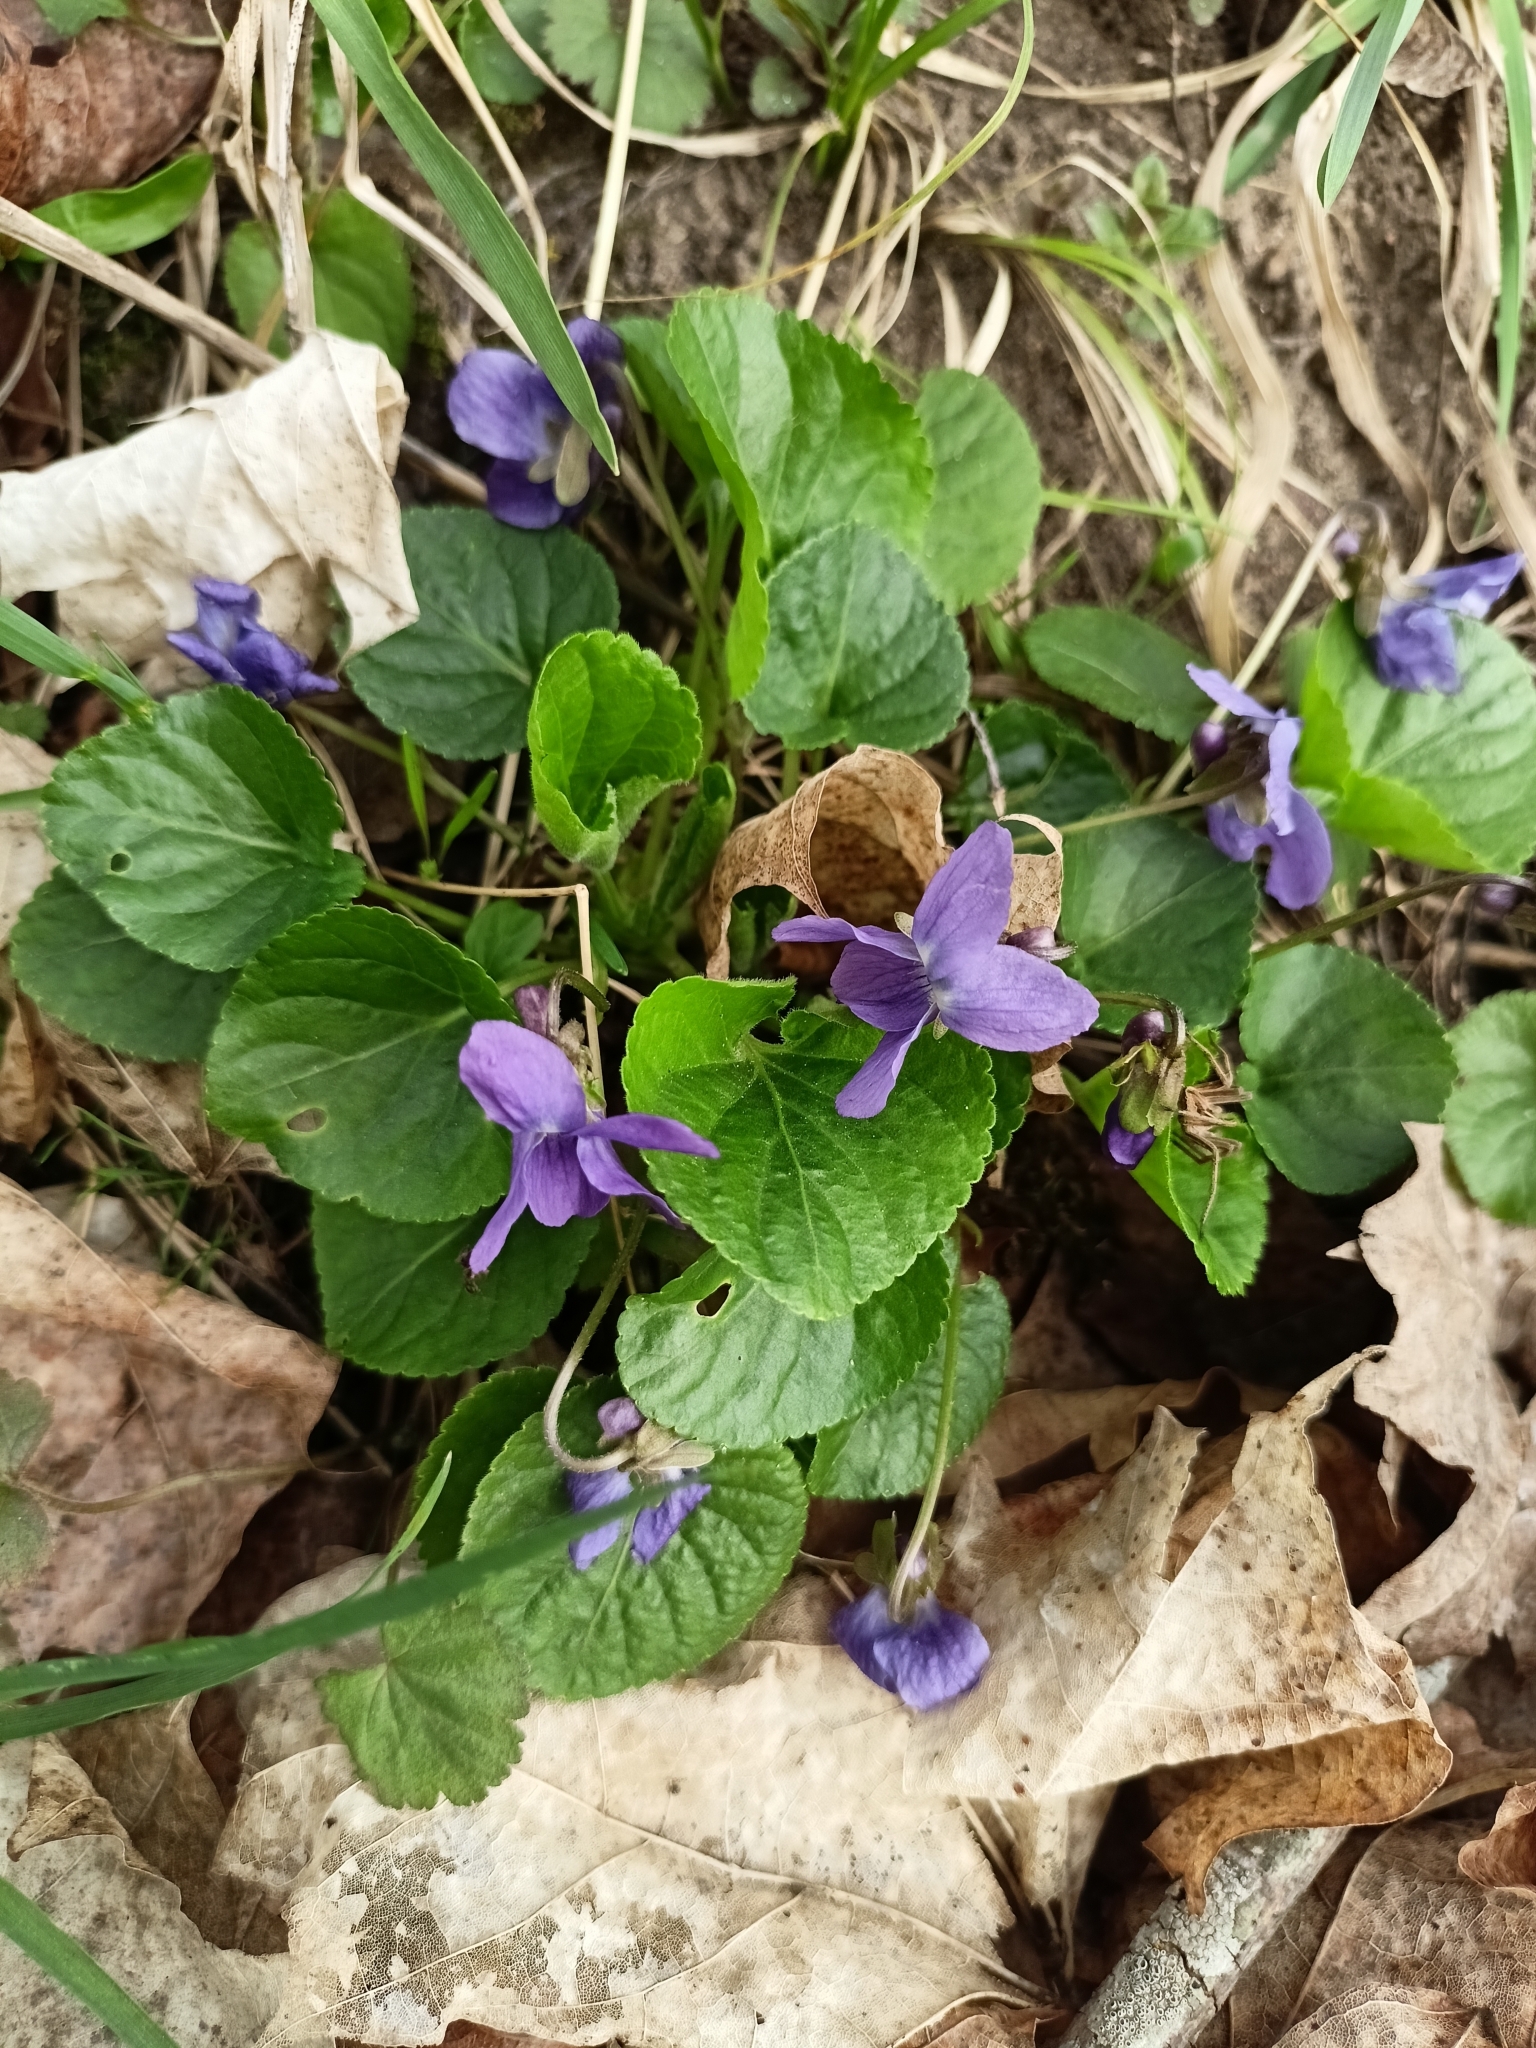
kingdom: Plantae
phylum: Tracheophyta
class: Magnoliopsida
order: Malpighiales
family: Violaceae
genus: Viola
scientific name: Viola odorata
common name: Sweet violet
